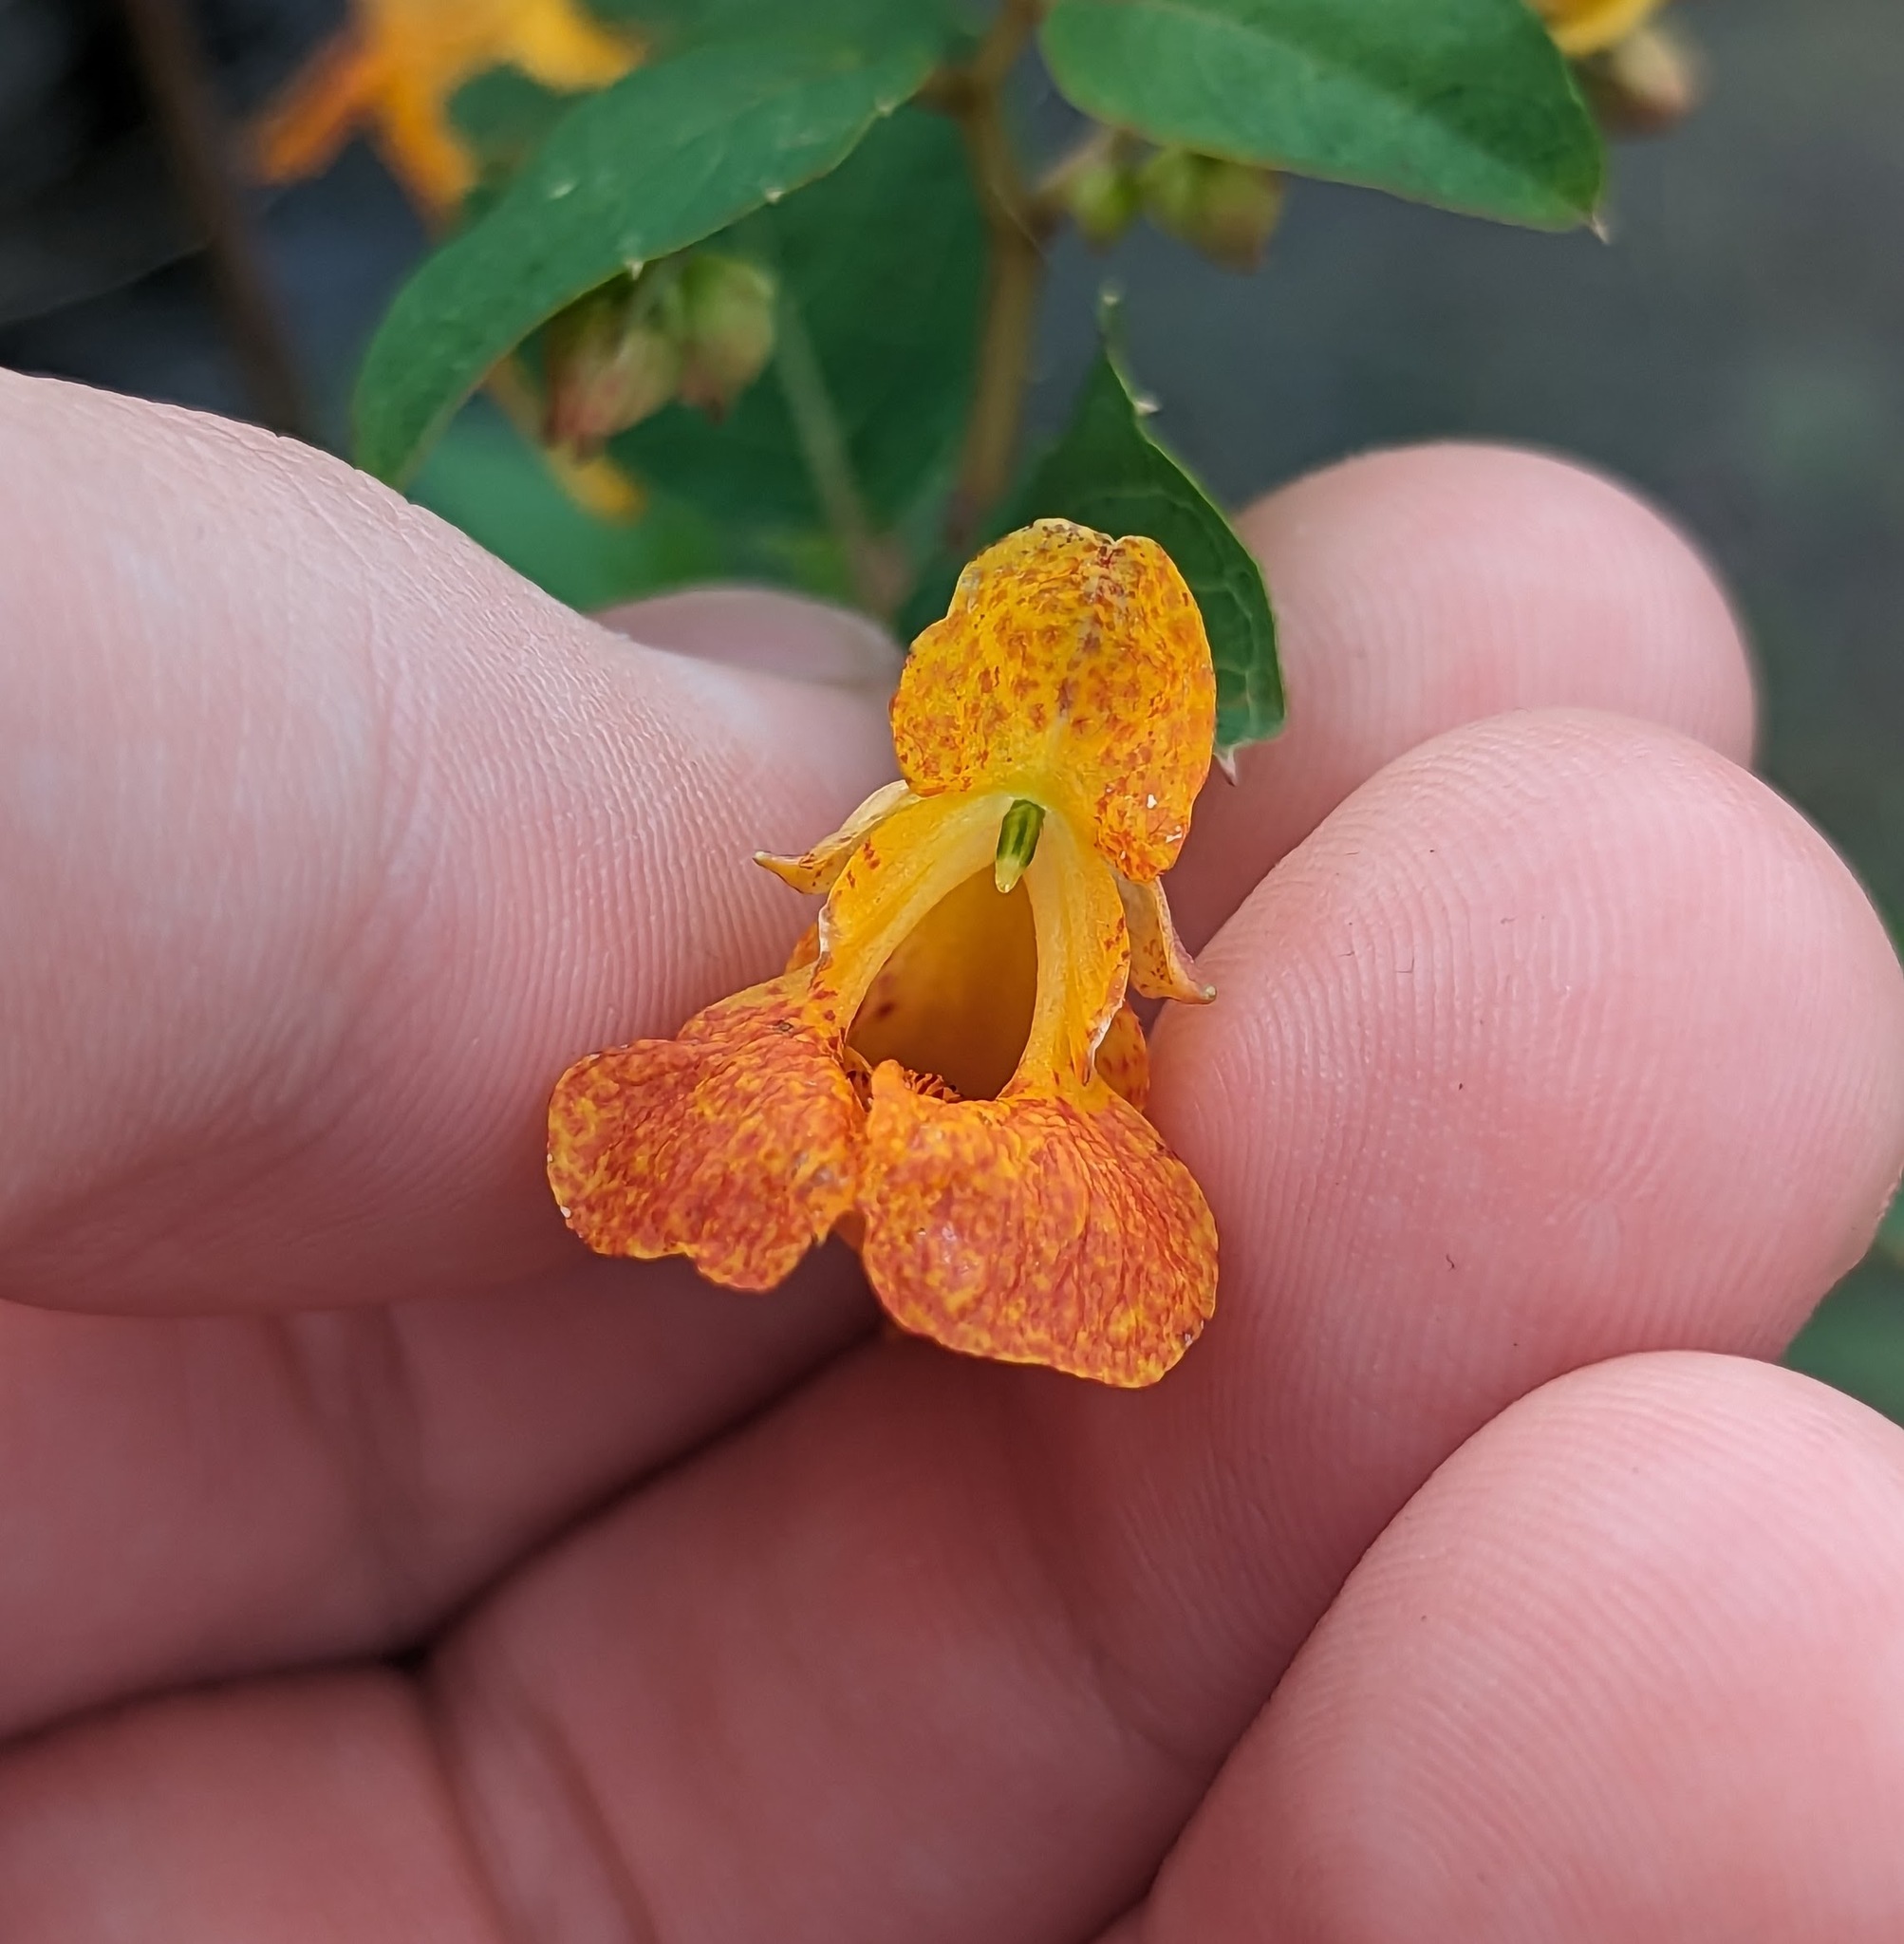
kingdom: Plantae
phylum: Tracheophyta
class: Magnoliopsida
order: Ericales
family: Balsaminaceae
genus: Impatiens
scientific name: Impatiens capensis
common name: Orange balsam
